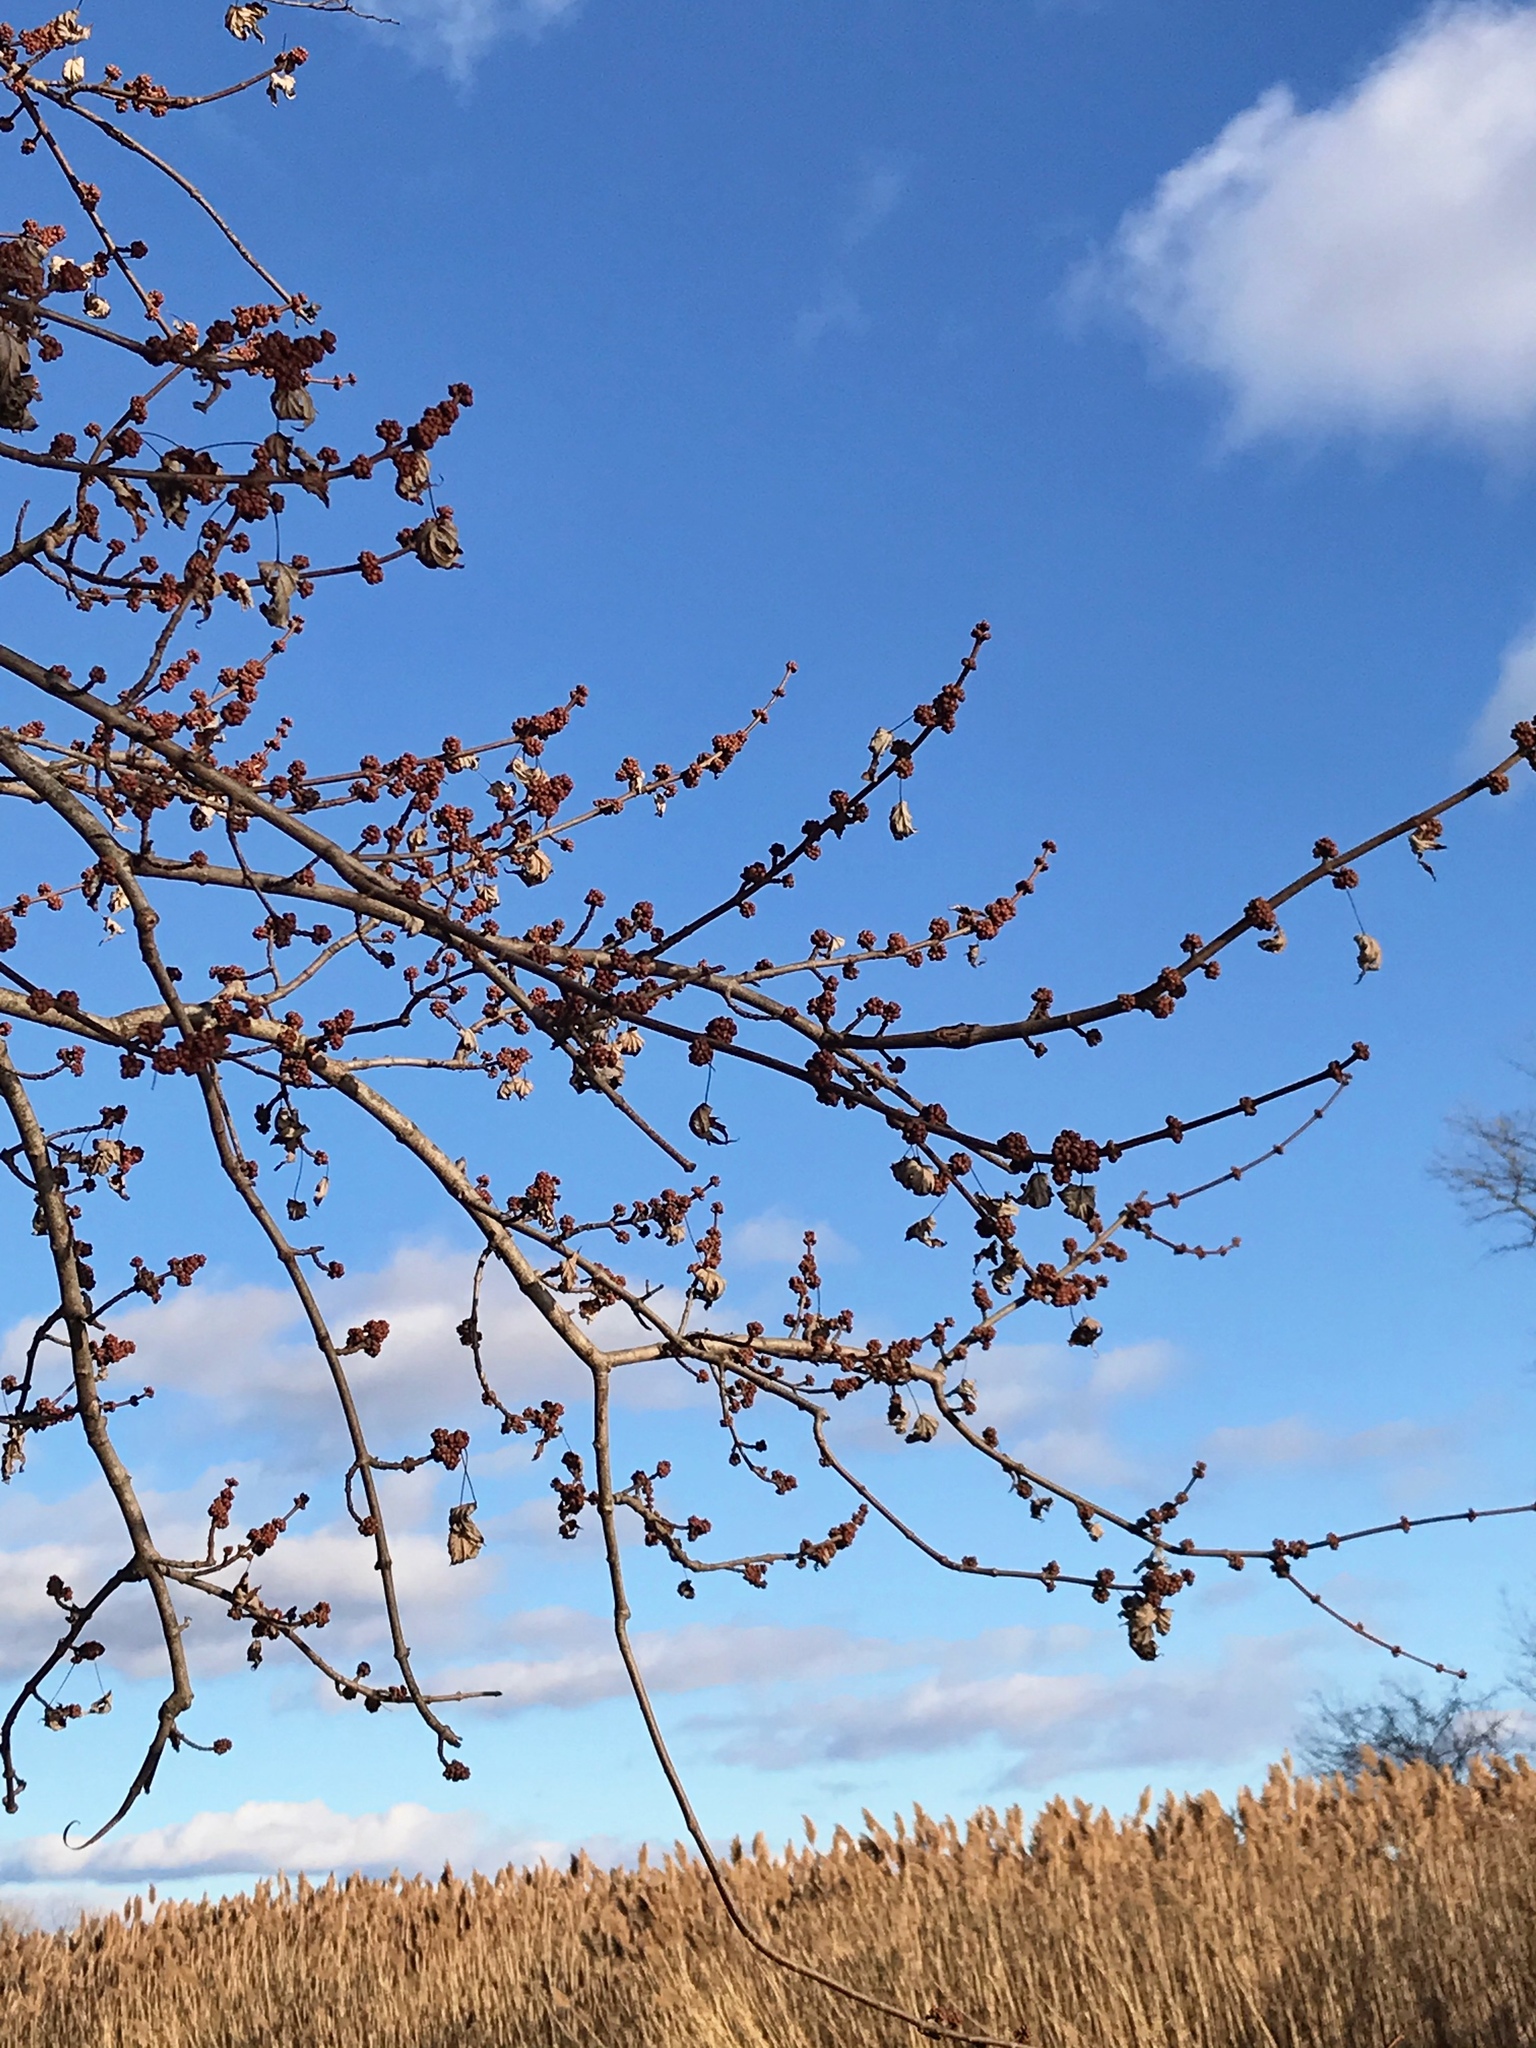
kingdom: Plantae
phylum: Tracheophyta
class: Magnoliopsida
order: Sapindales
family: Sapindaceae
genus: Acer
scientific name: Acer saccharinum
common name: Silver maple
